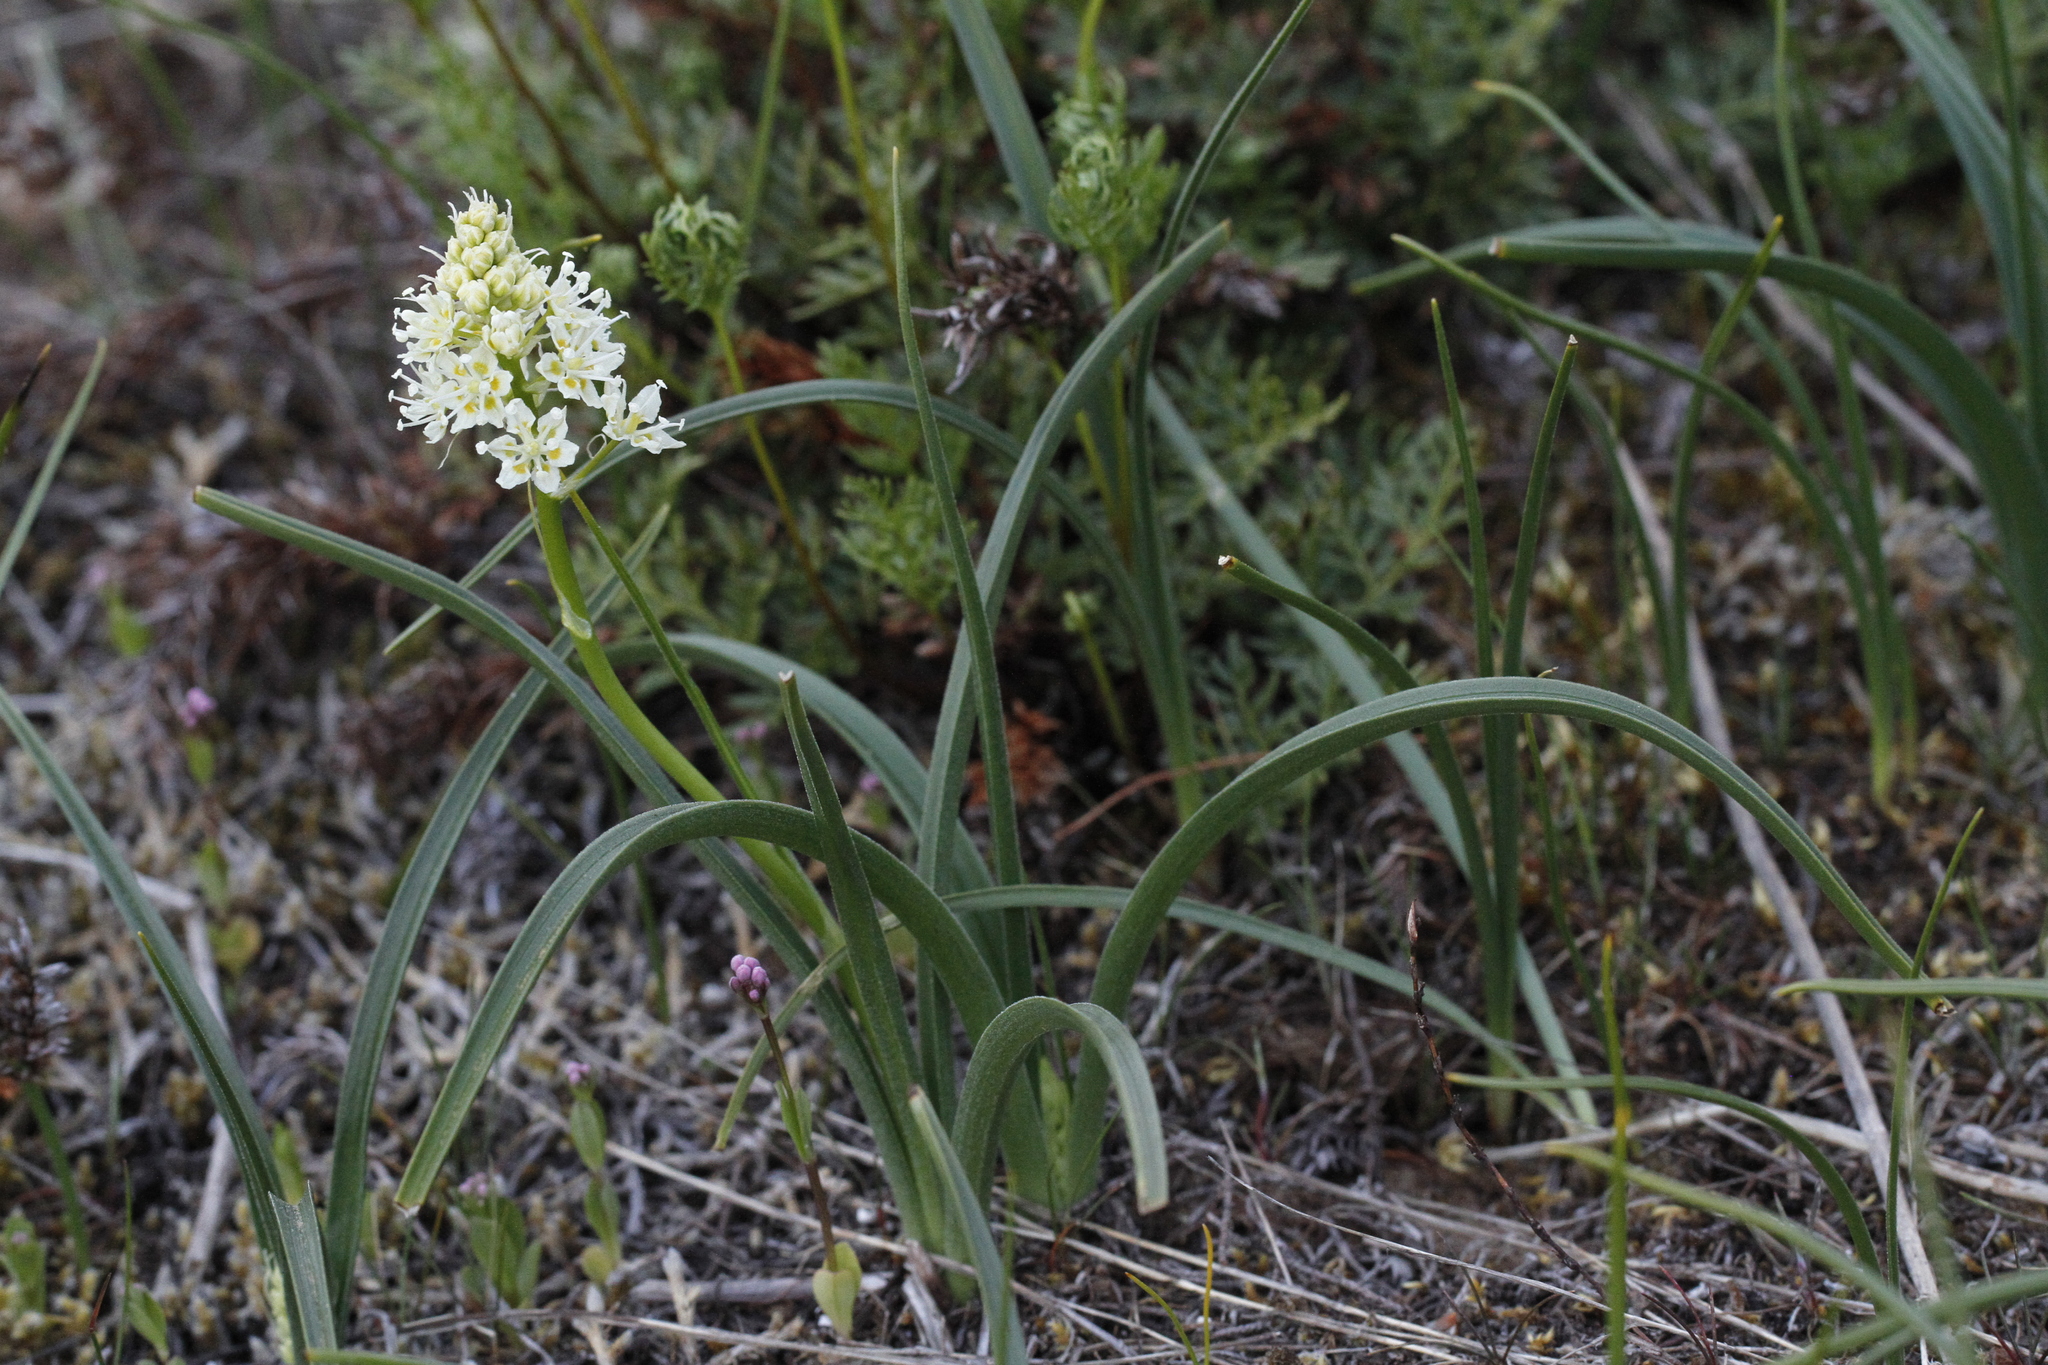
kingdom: Plantae
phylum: Tracheophyta
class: Liliopsida
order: Liliales
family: Melanthiaceae
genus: Toxicoscordion
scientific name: Toxicoscordion venenosum
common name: Meadow death camas
